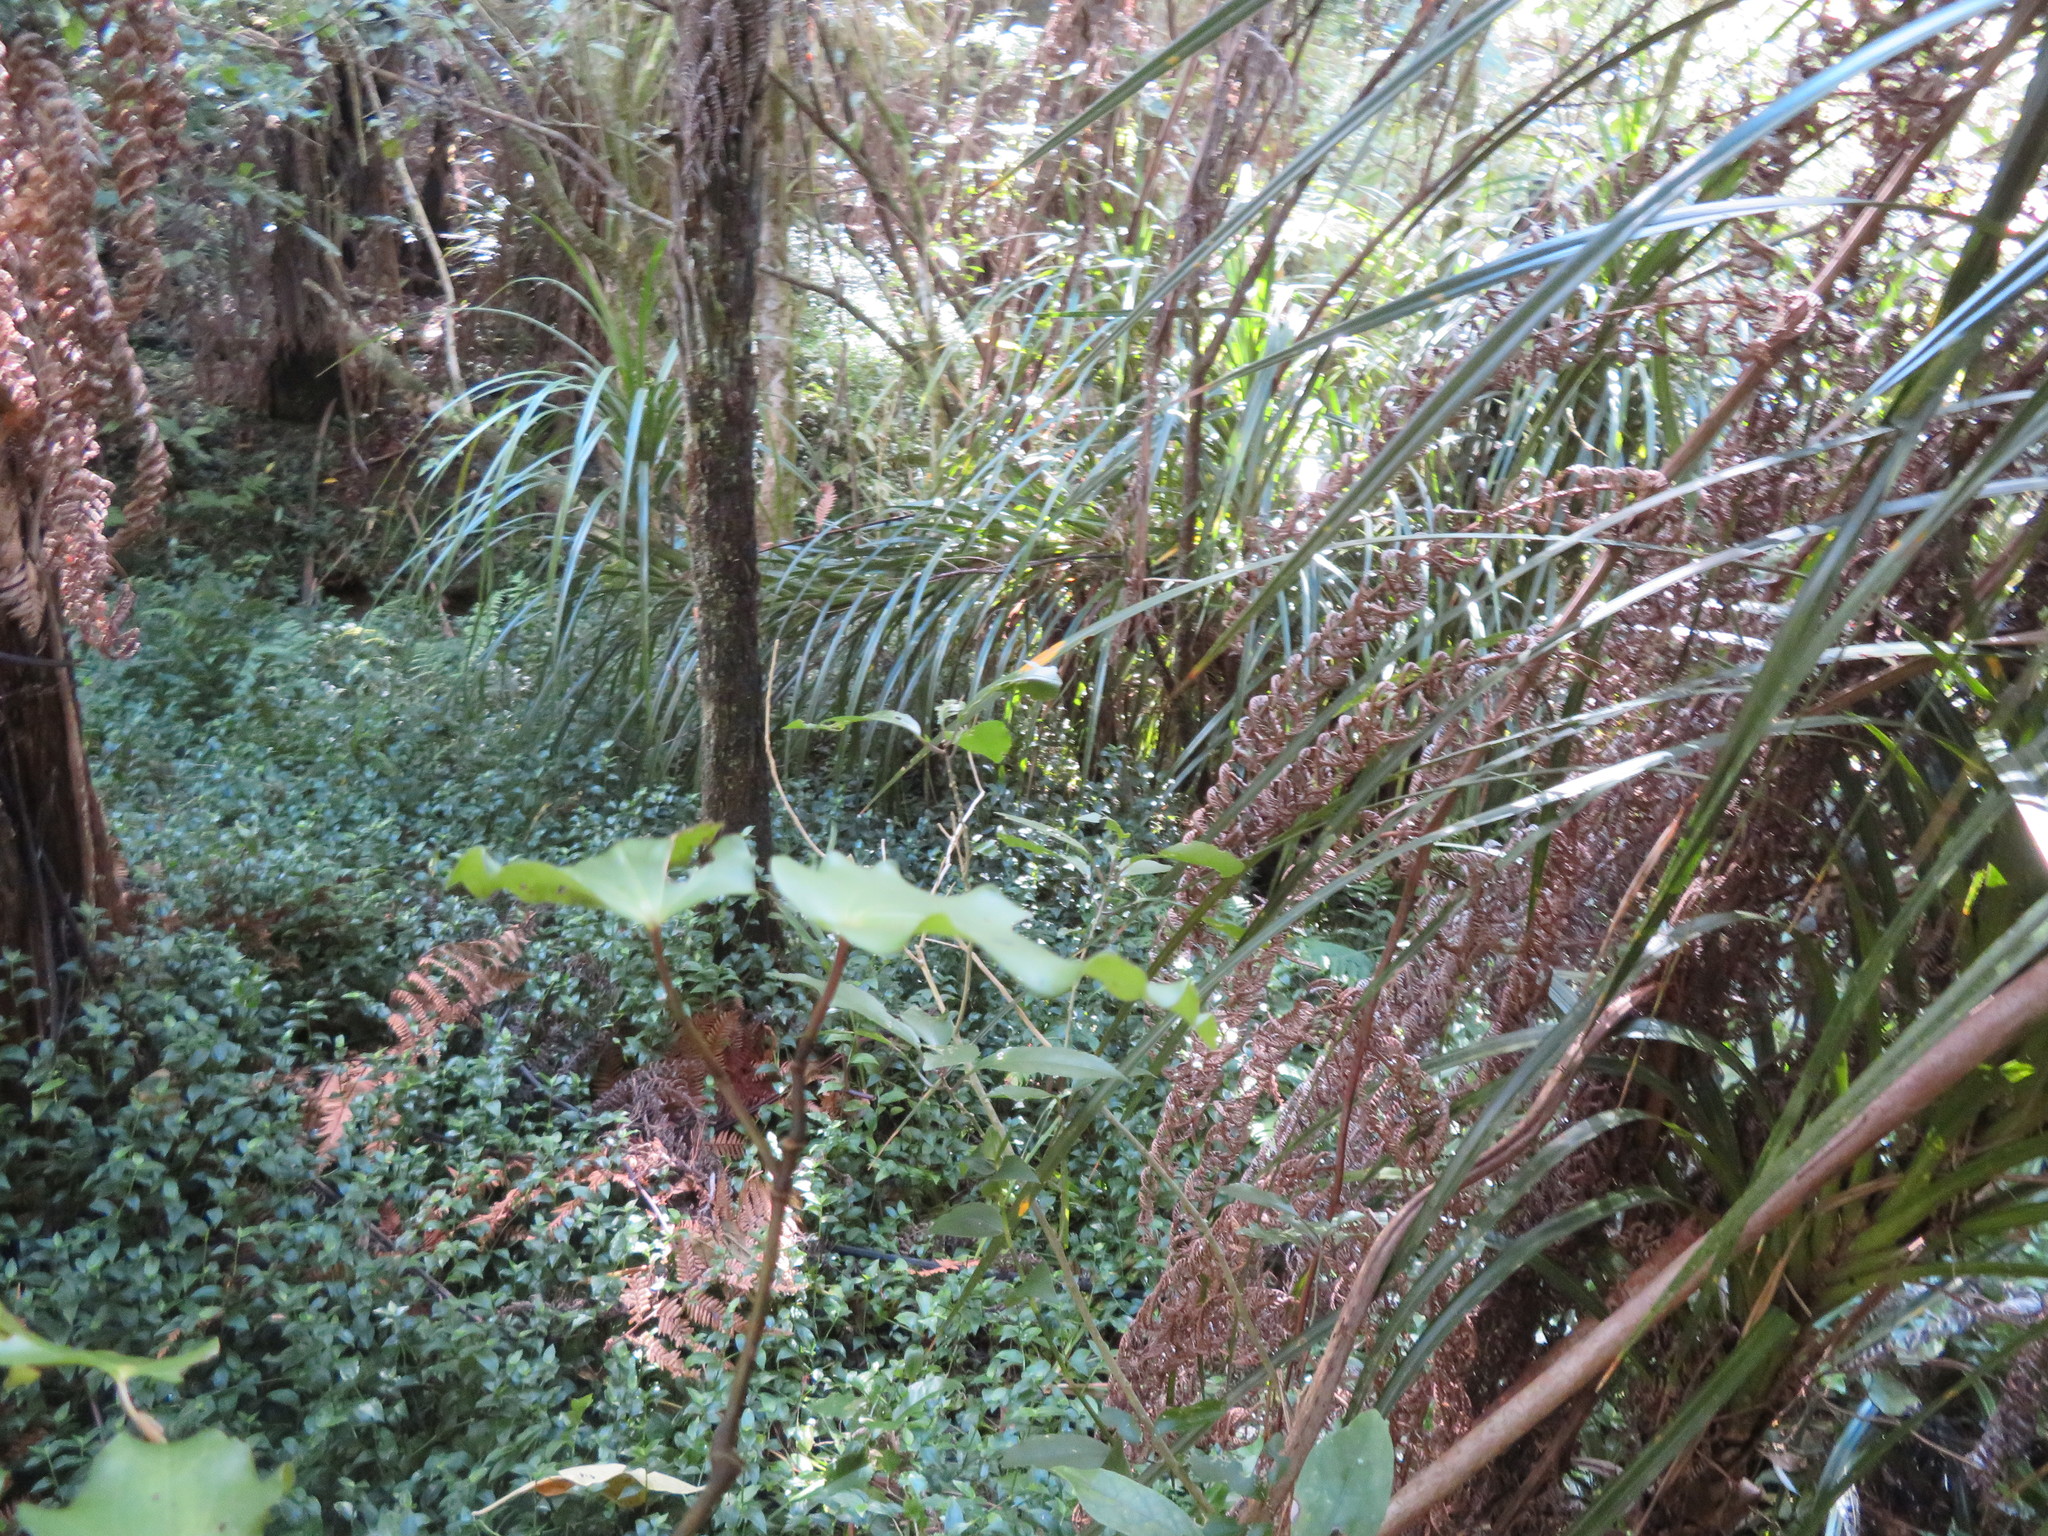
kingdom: Plantae
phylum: Tracheophyta
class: Liliopsida
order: Commelinales
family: Commelinaceae
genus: Tradescantia
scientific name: Tradescantia fluminensis
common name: Wandering-jew
